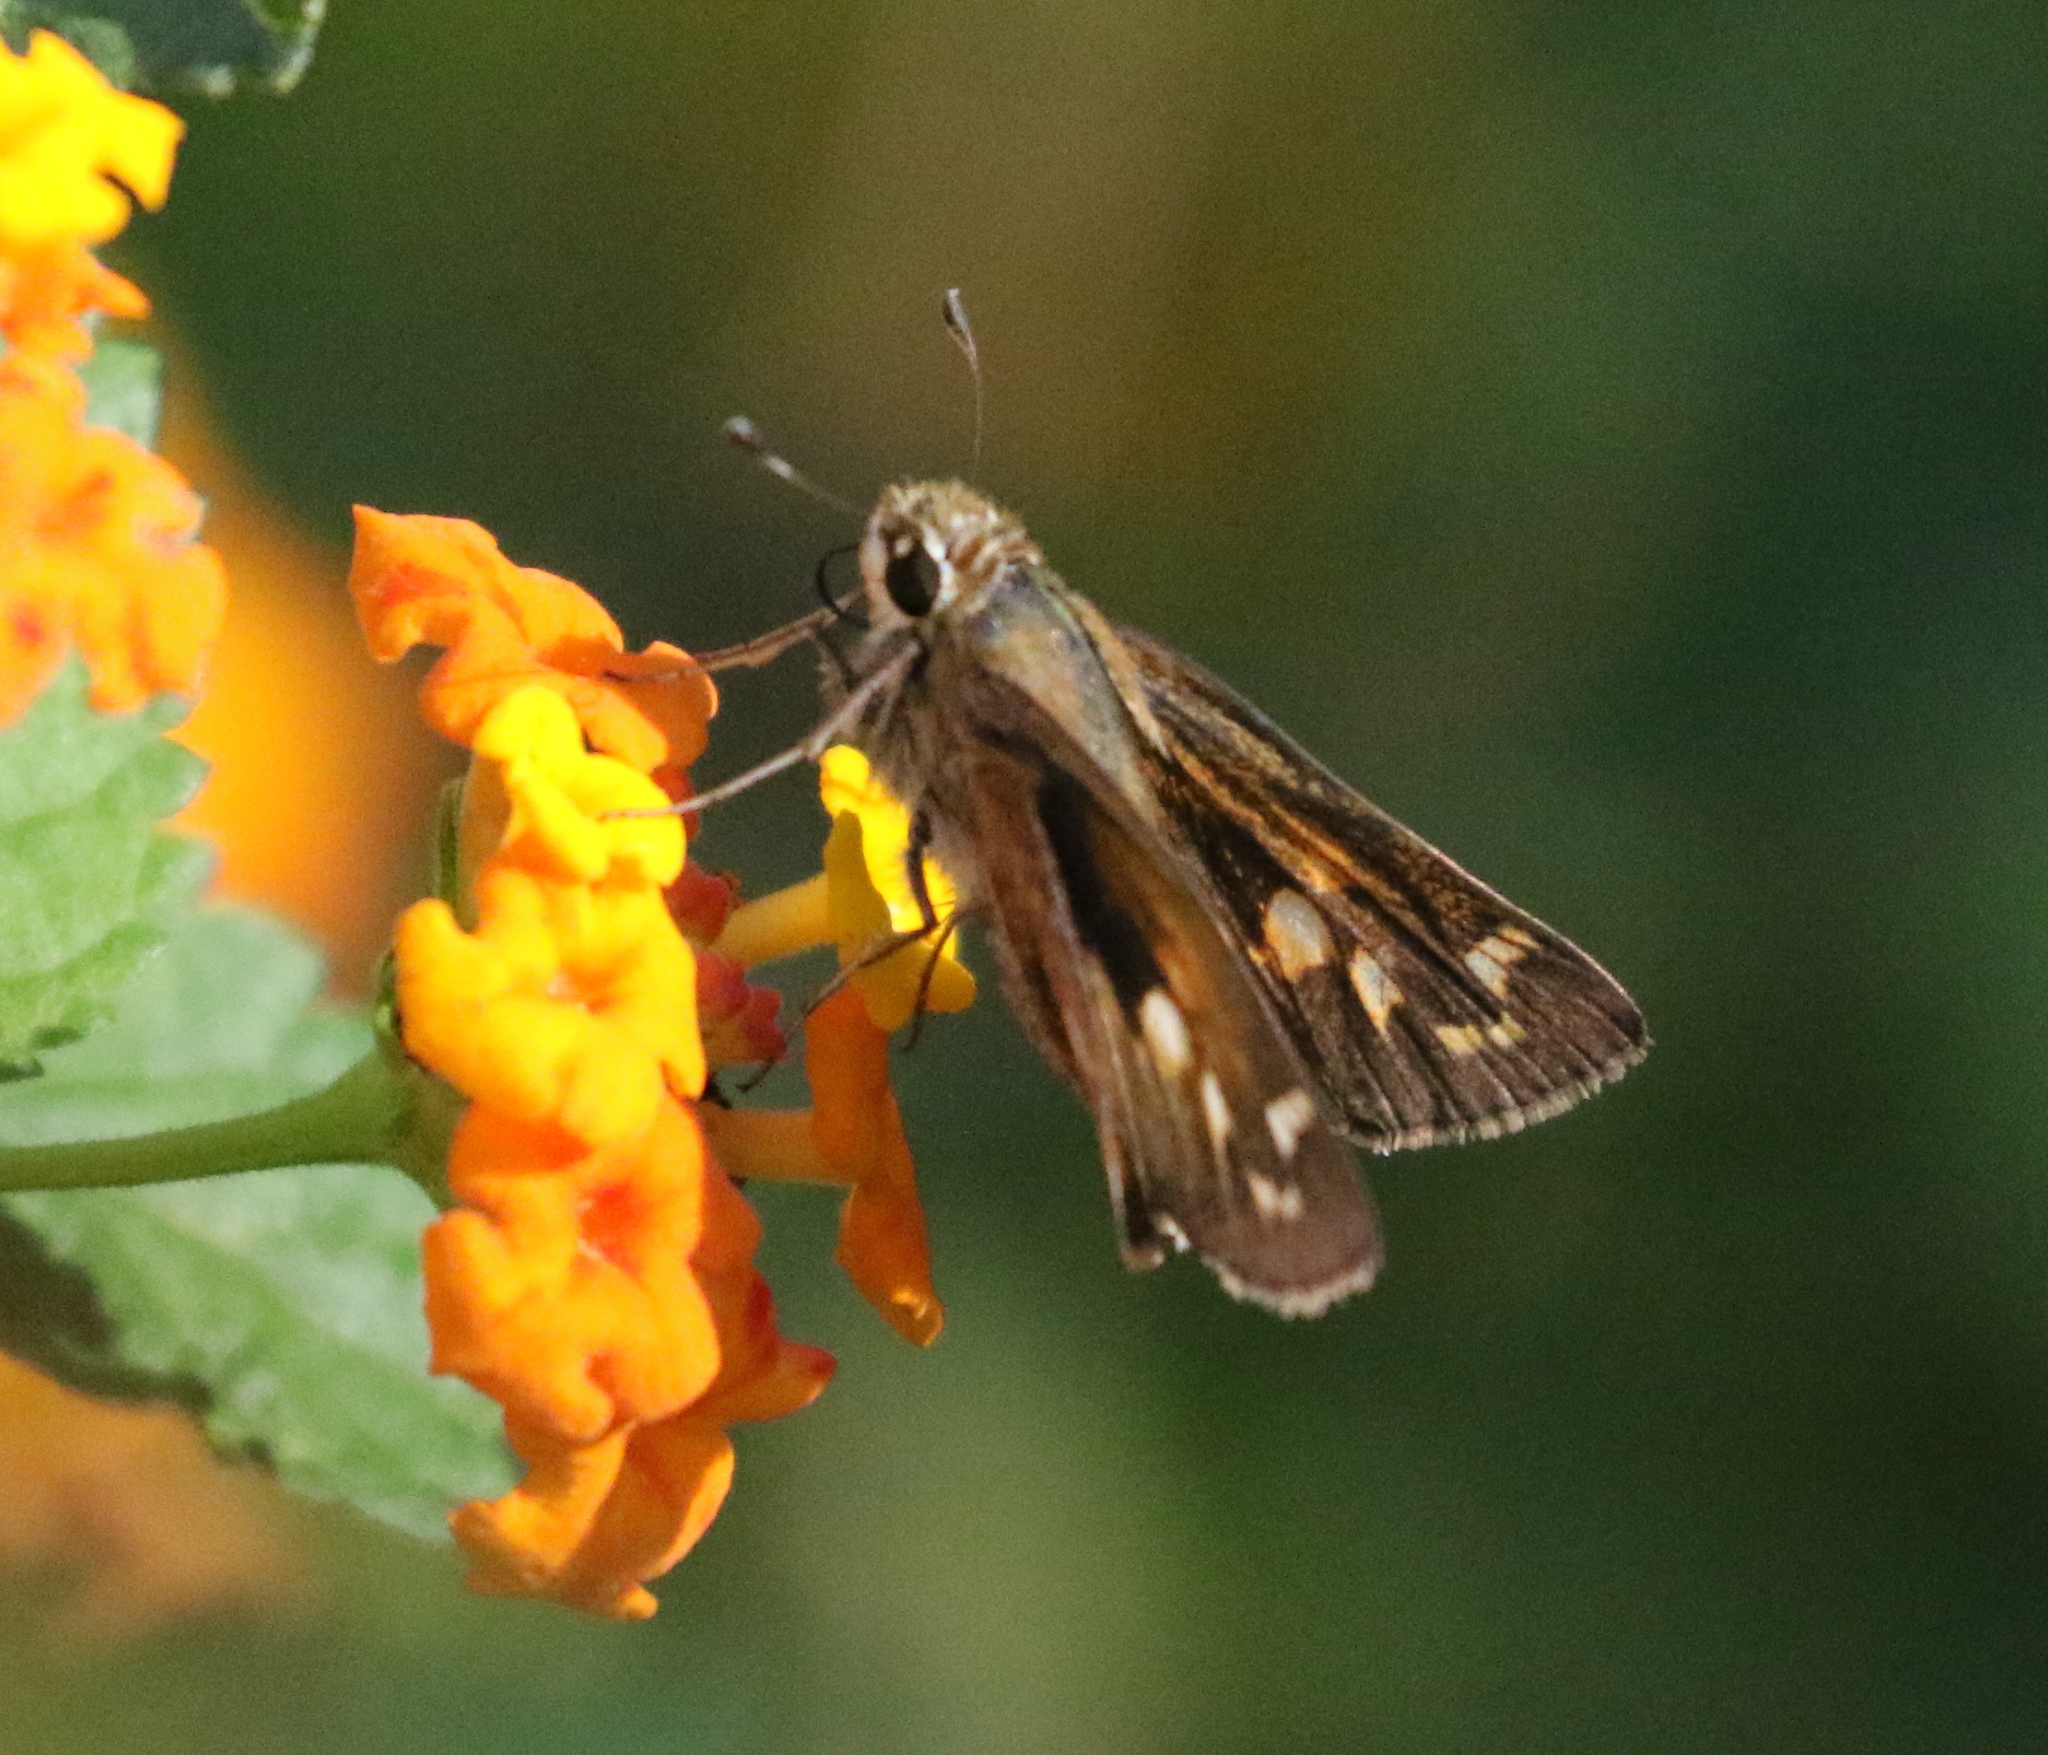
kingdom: Animalia
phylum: Arthropoda
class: Insecta
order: Lepidoptera
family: Hesperiidae
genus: Atalopedes
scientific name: Atalopedes
